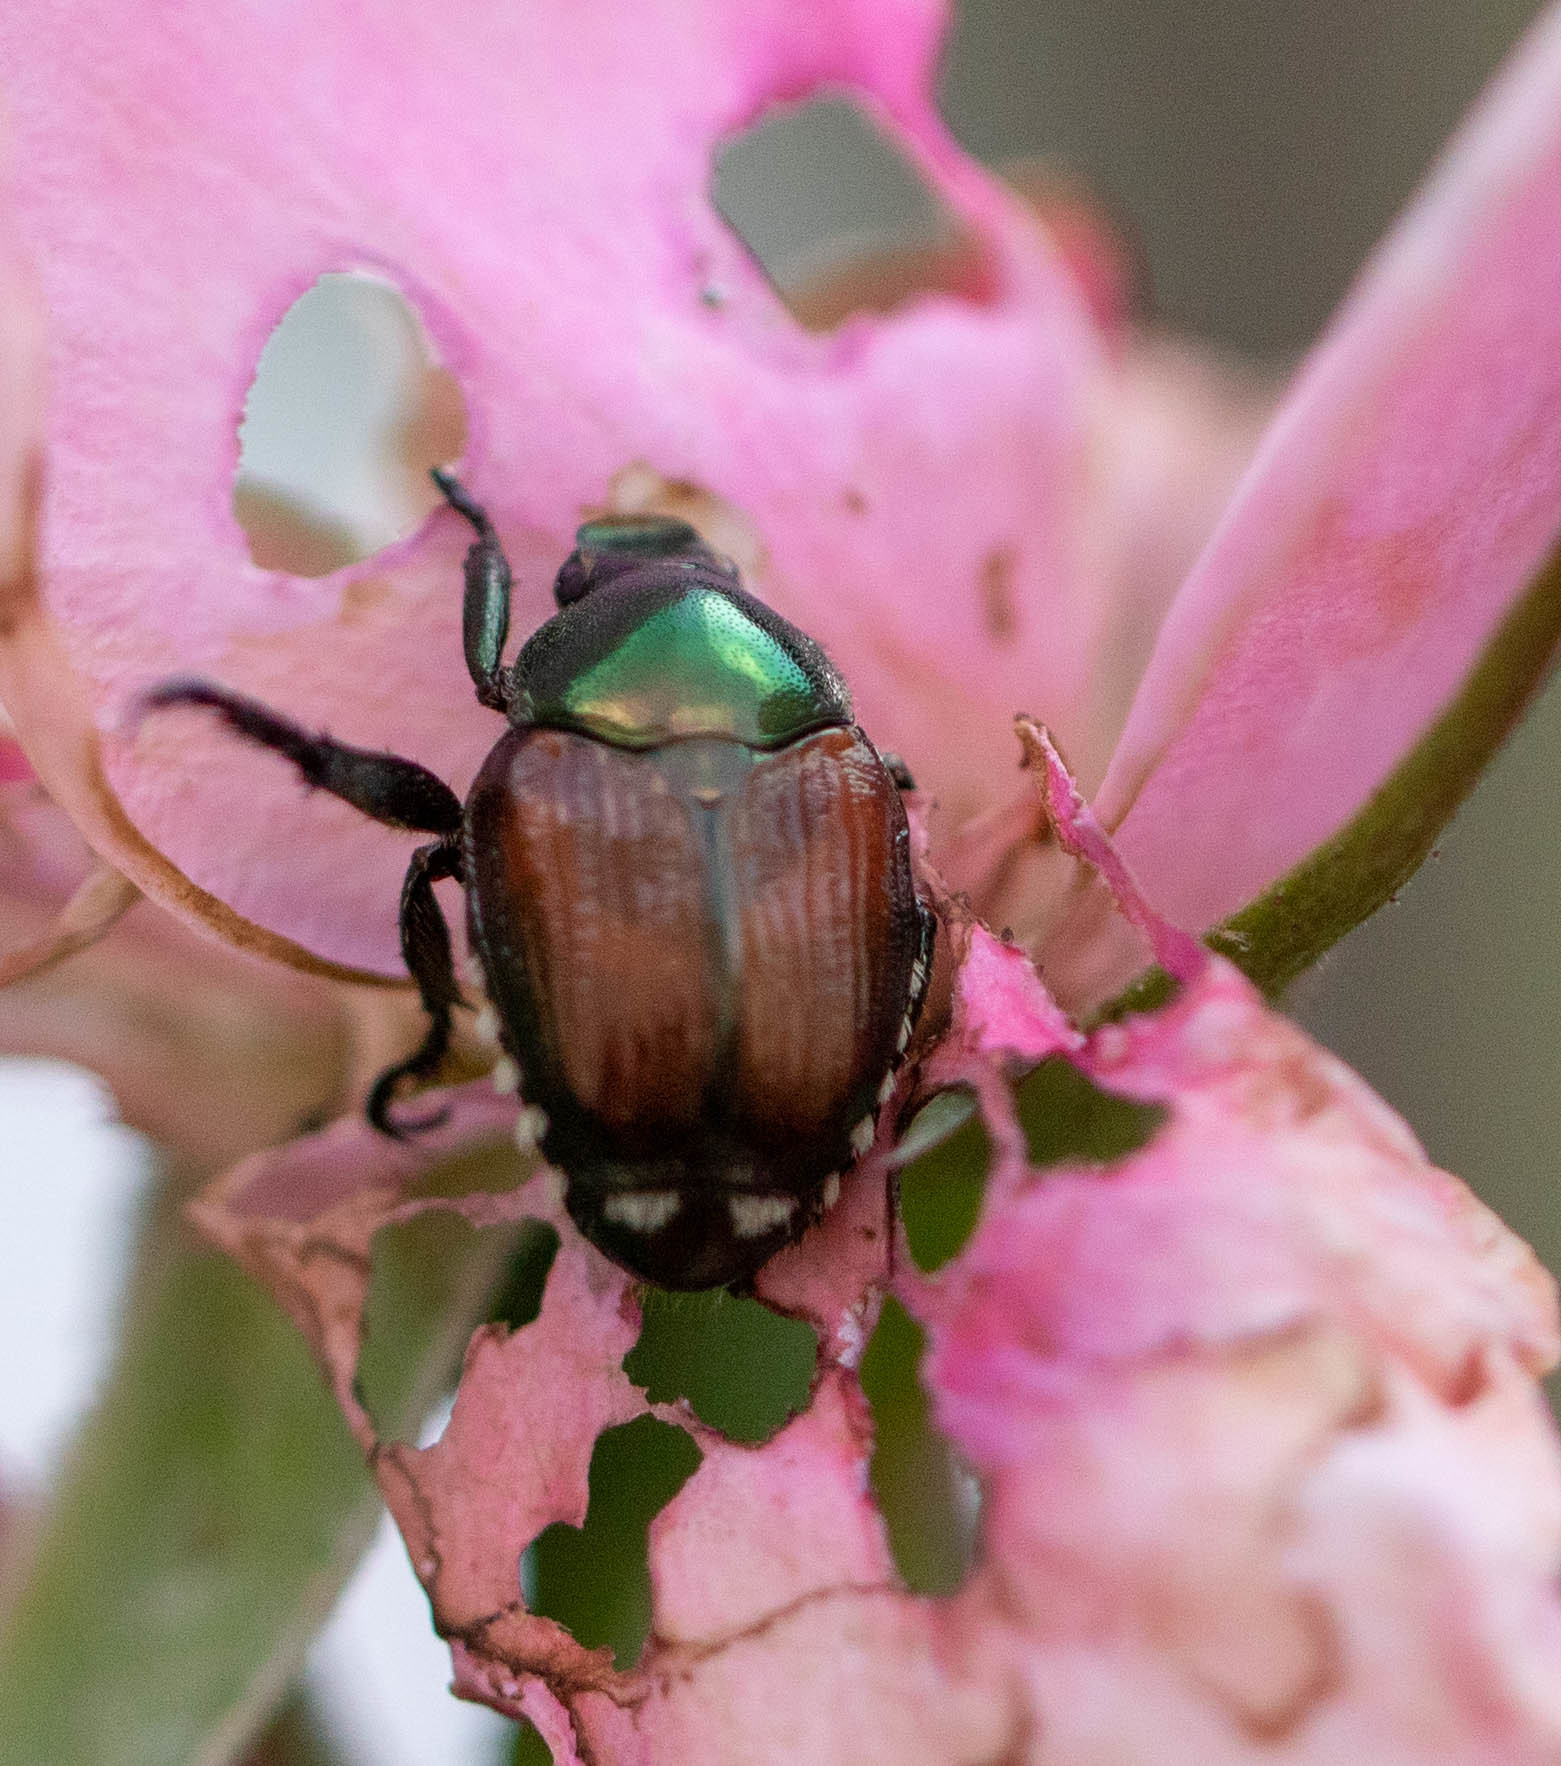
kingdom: Animalia
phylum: Arthropoda
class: Insecta
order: Coleoptera
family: Scarabaeidae
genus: Popillia
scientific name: Popillia japonica
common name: Japanese beetle
